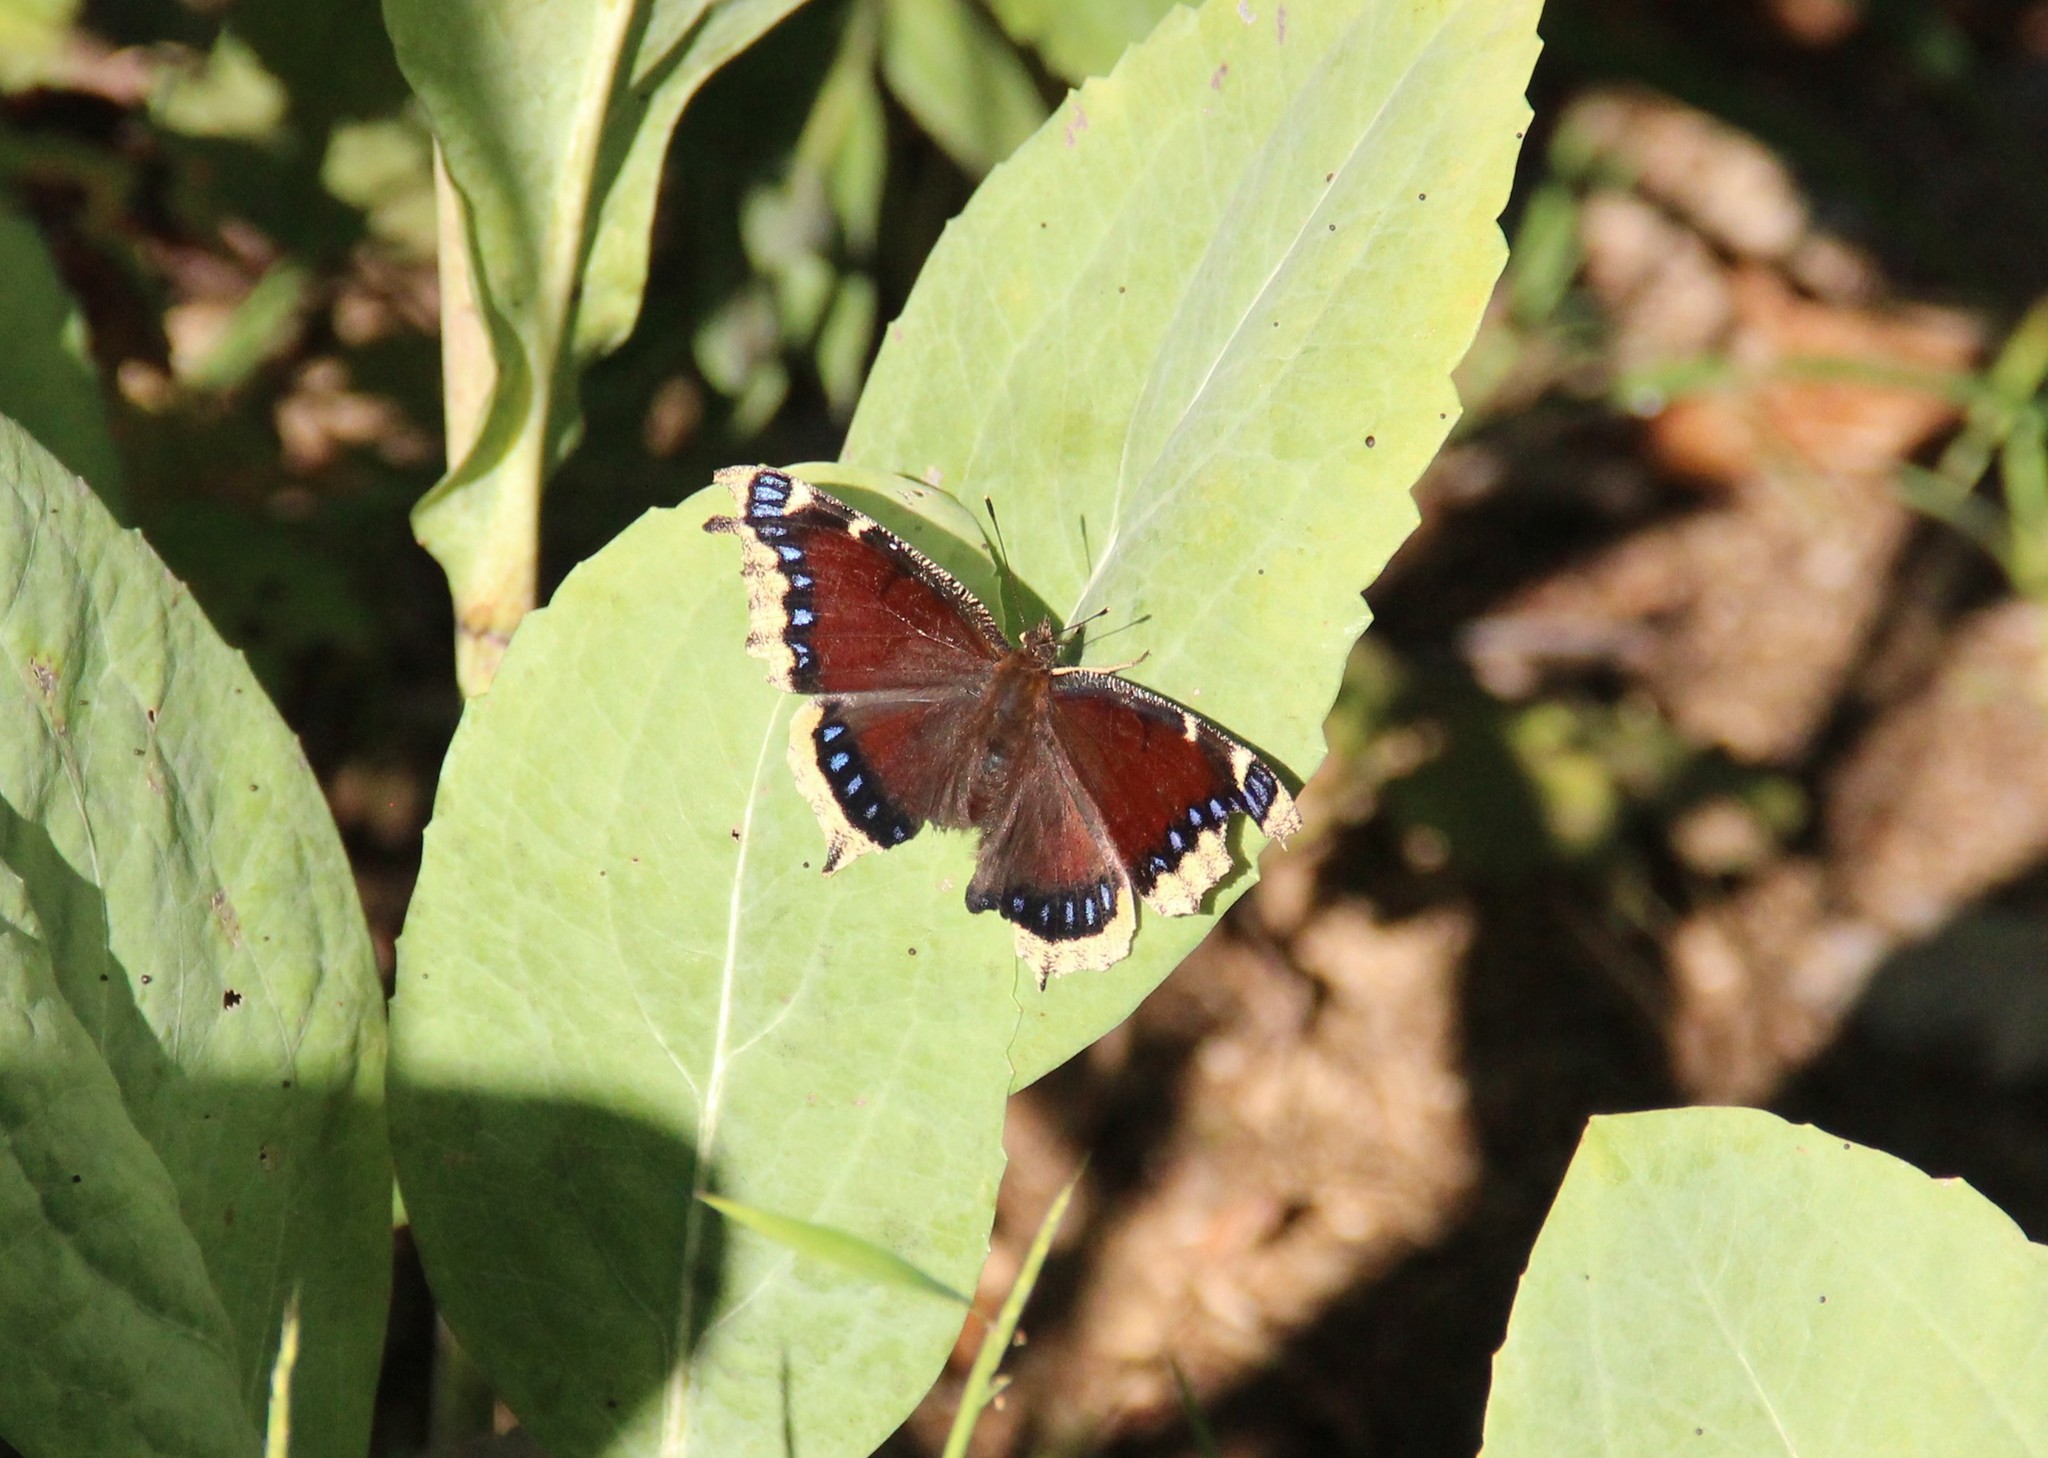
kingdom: Animalia
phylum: Arthropoda
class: Insecta
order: Lepidoptera
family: Nymphalidae
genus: Nymphalis
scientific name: Nymphalis antiopa
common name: Camberwell beauty
